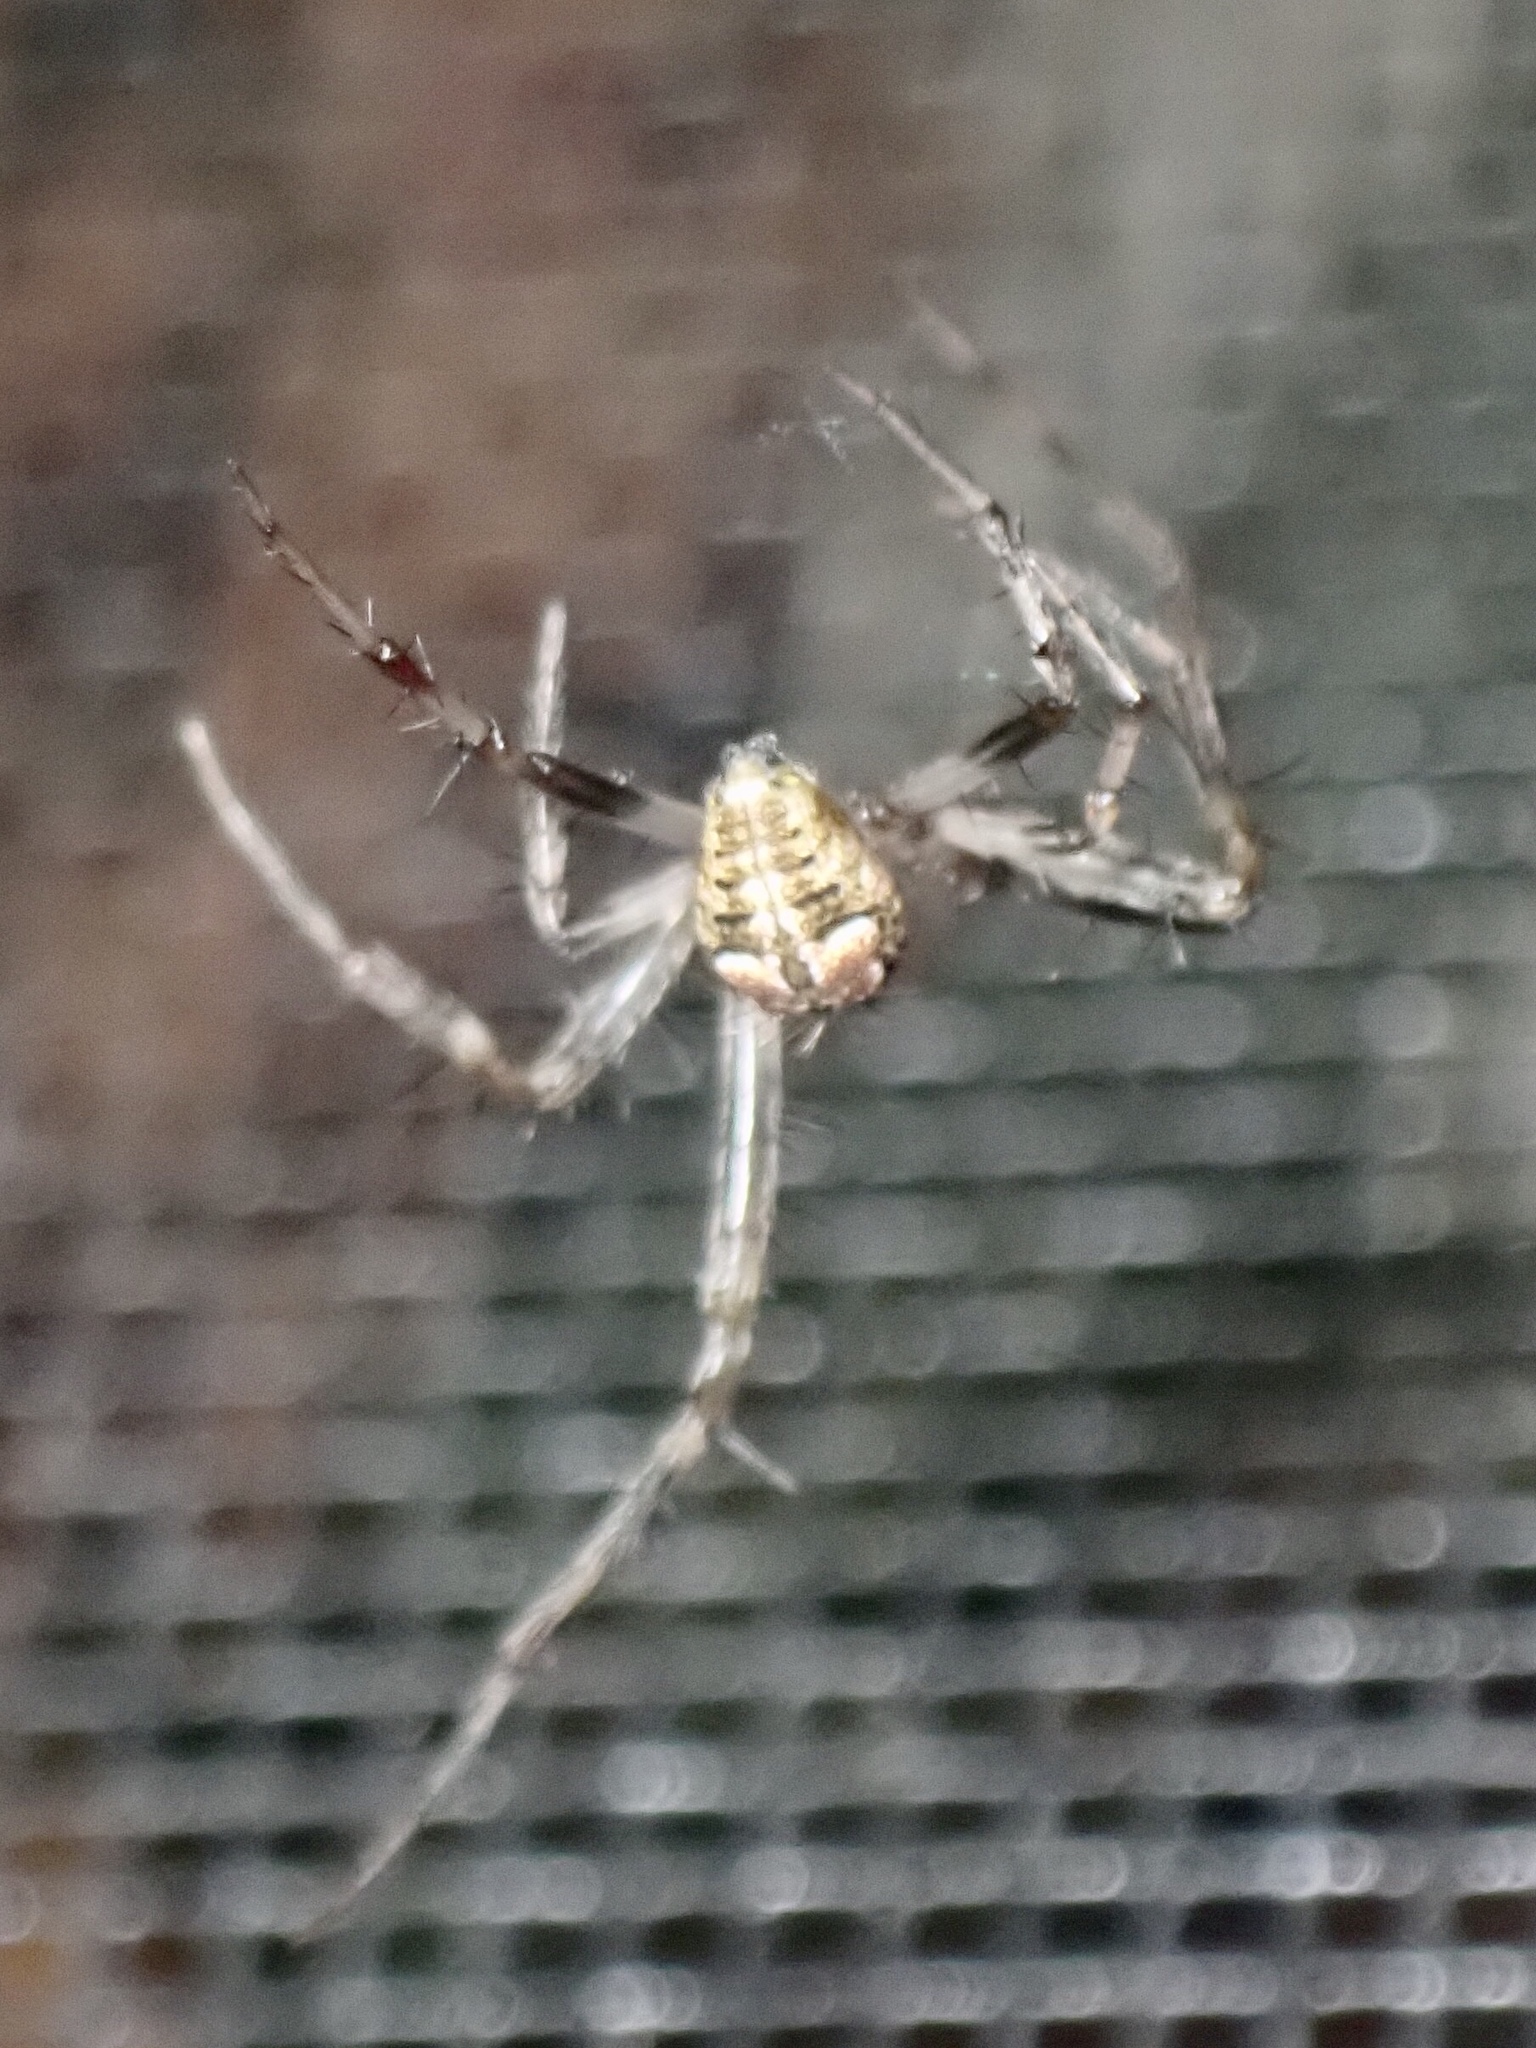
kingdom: Animalia
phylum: Arthropoda
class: Arachnida
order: Araneae
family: Araneidae
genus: Araneus
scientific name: Araneus pegnia
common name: Orb weavers
